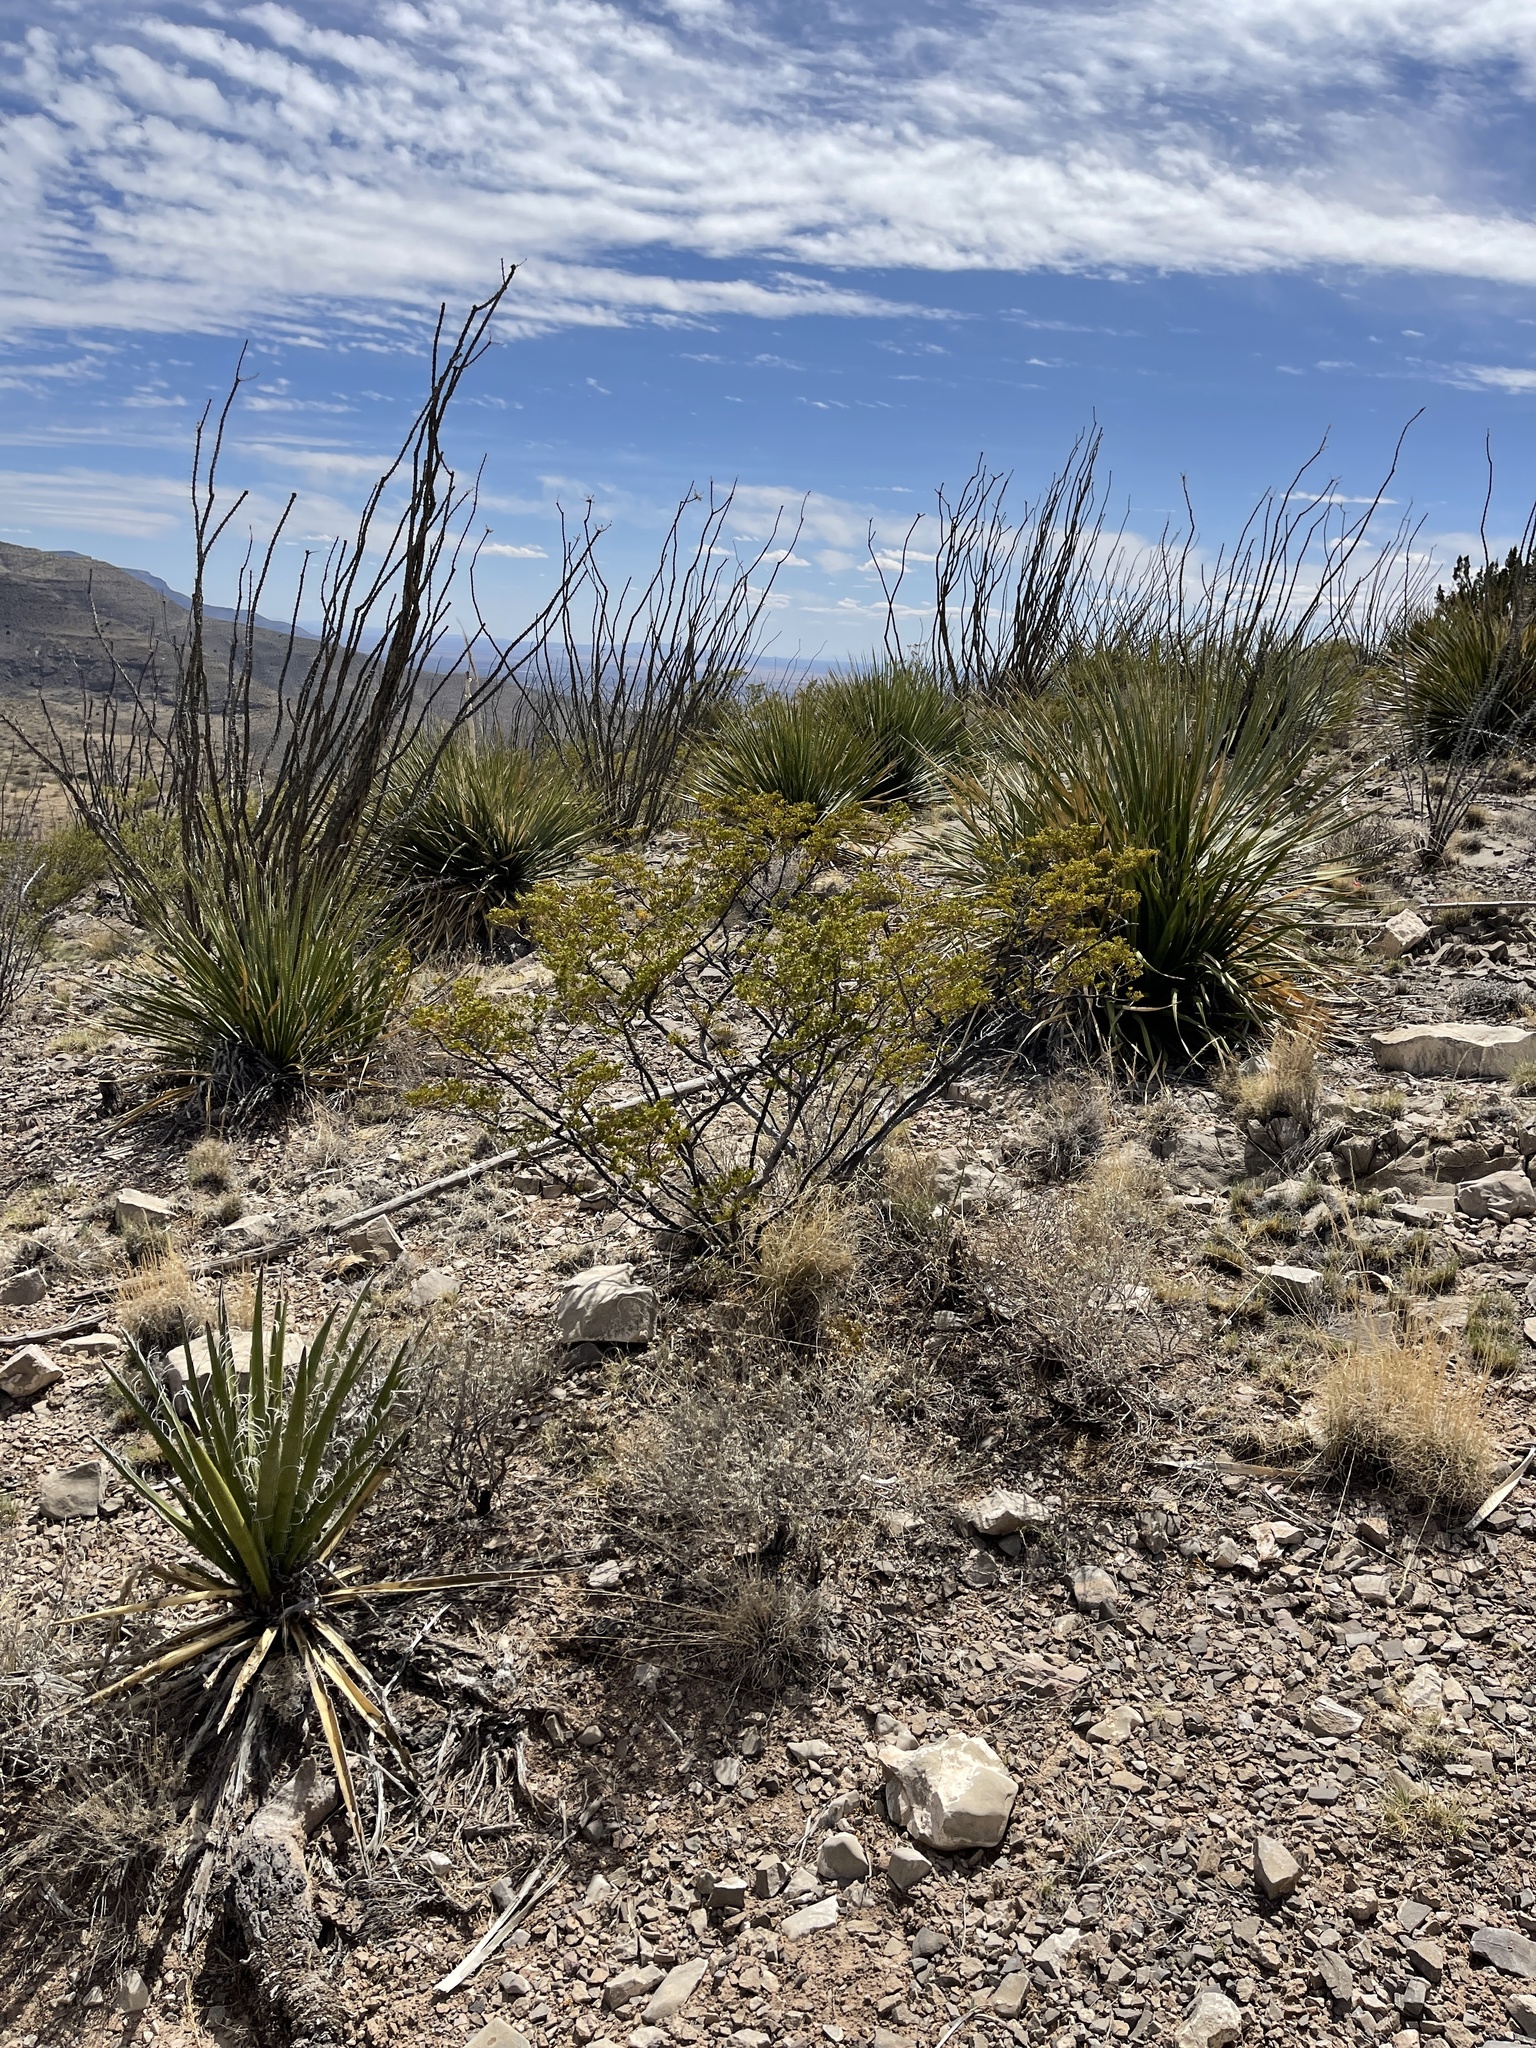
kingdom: Plantae
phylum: Tracheophyta
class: Magnoliopsida
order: Zygophyllales
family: Zygophyllaceae
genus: Larrea
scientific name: Larrea tridentata
